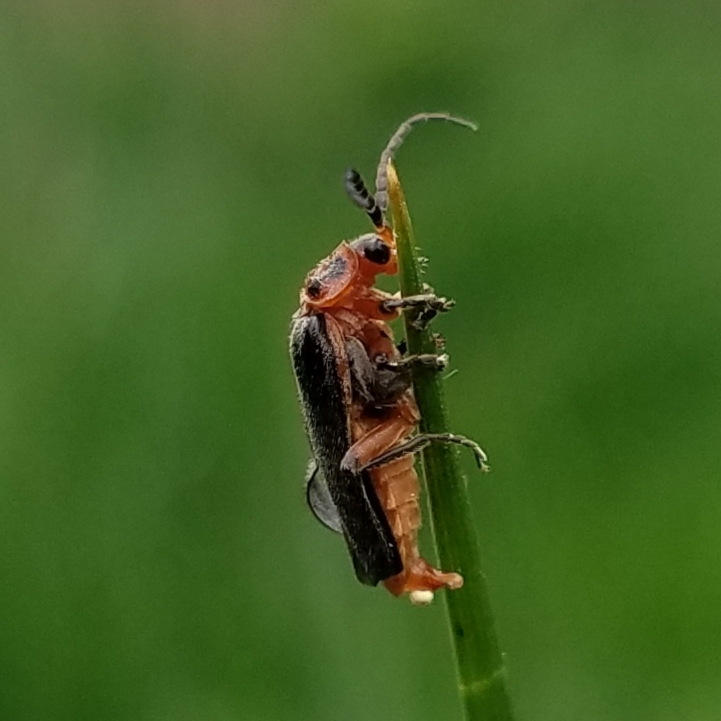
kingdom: Animalia
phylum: Arthropoda
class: Insecta
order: Coleoptera
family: Cantharidae
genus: Atalantycha
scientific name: Atalantycha bilineata
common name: Two-lined leatherwing
